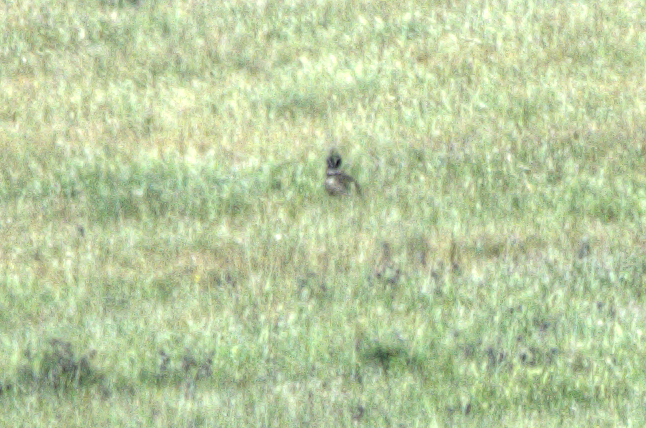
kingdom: Animalia
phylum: Chordata
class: Aves
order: Otidiformes
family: Otididae
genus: Tetrax
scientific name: Tetrax tetrax
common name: Little bustard
